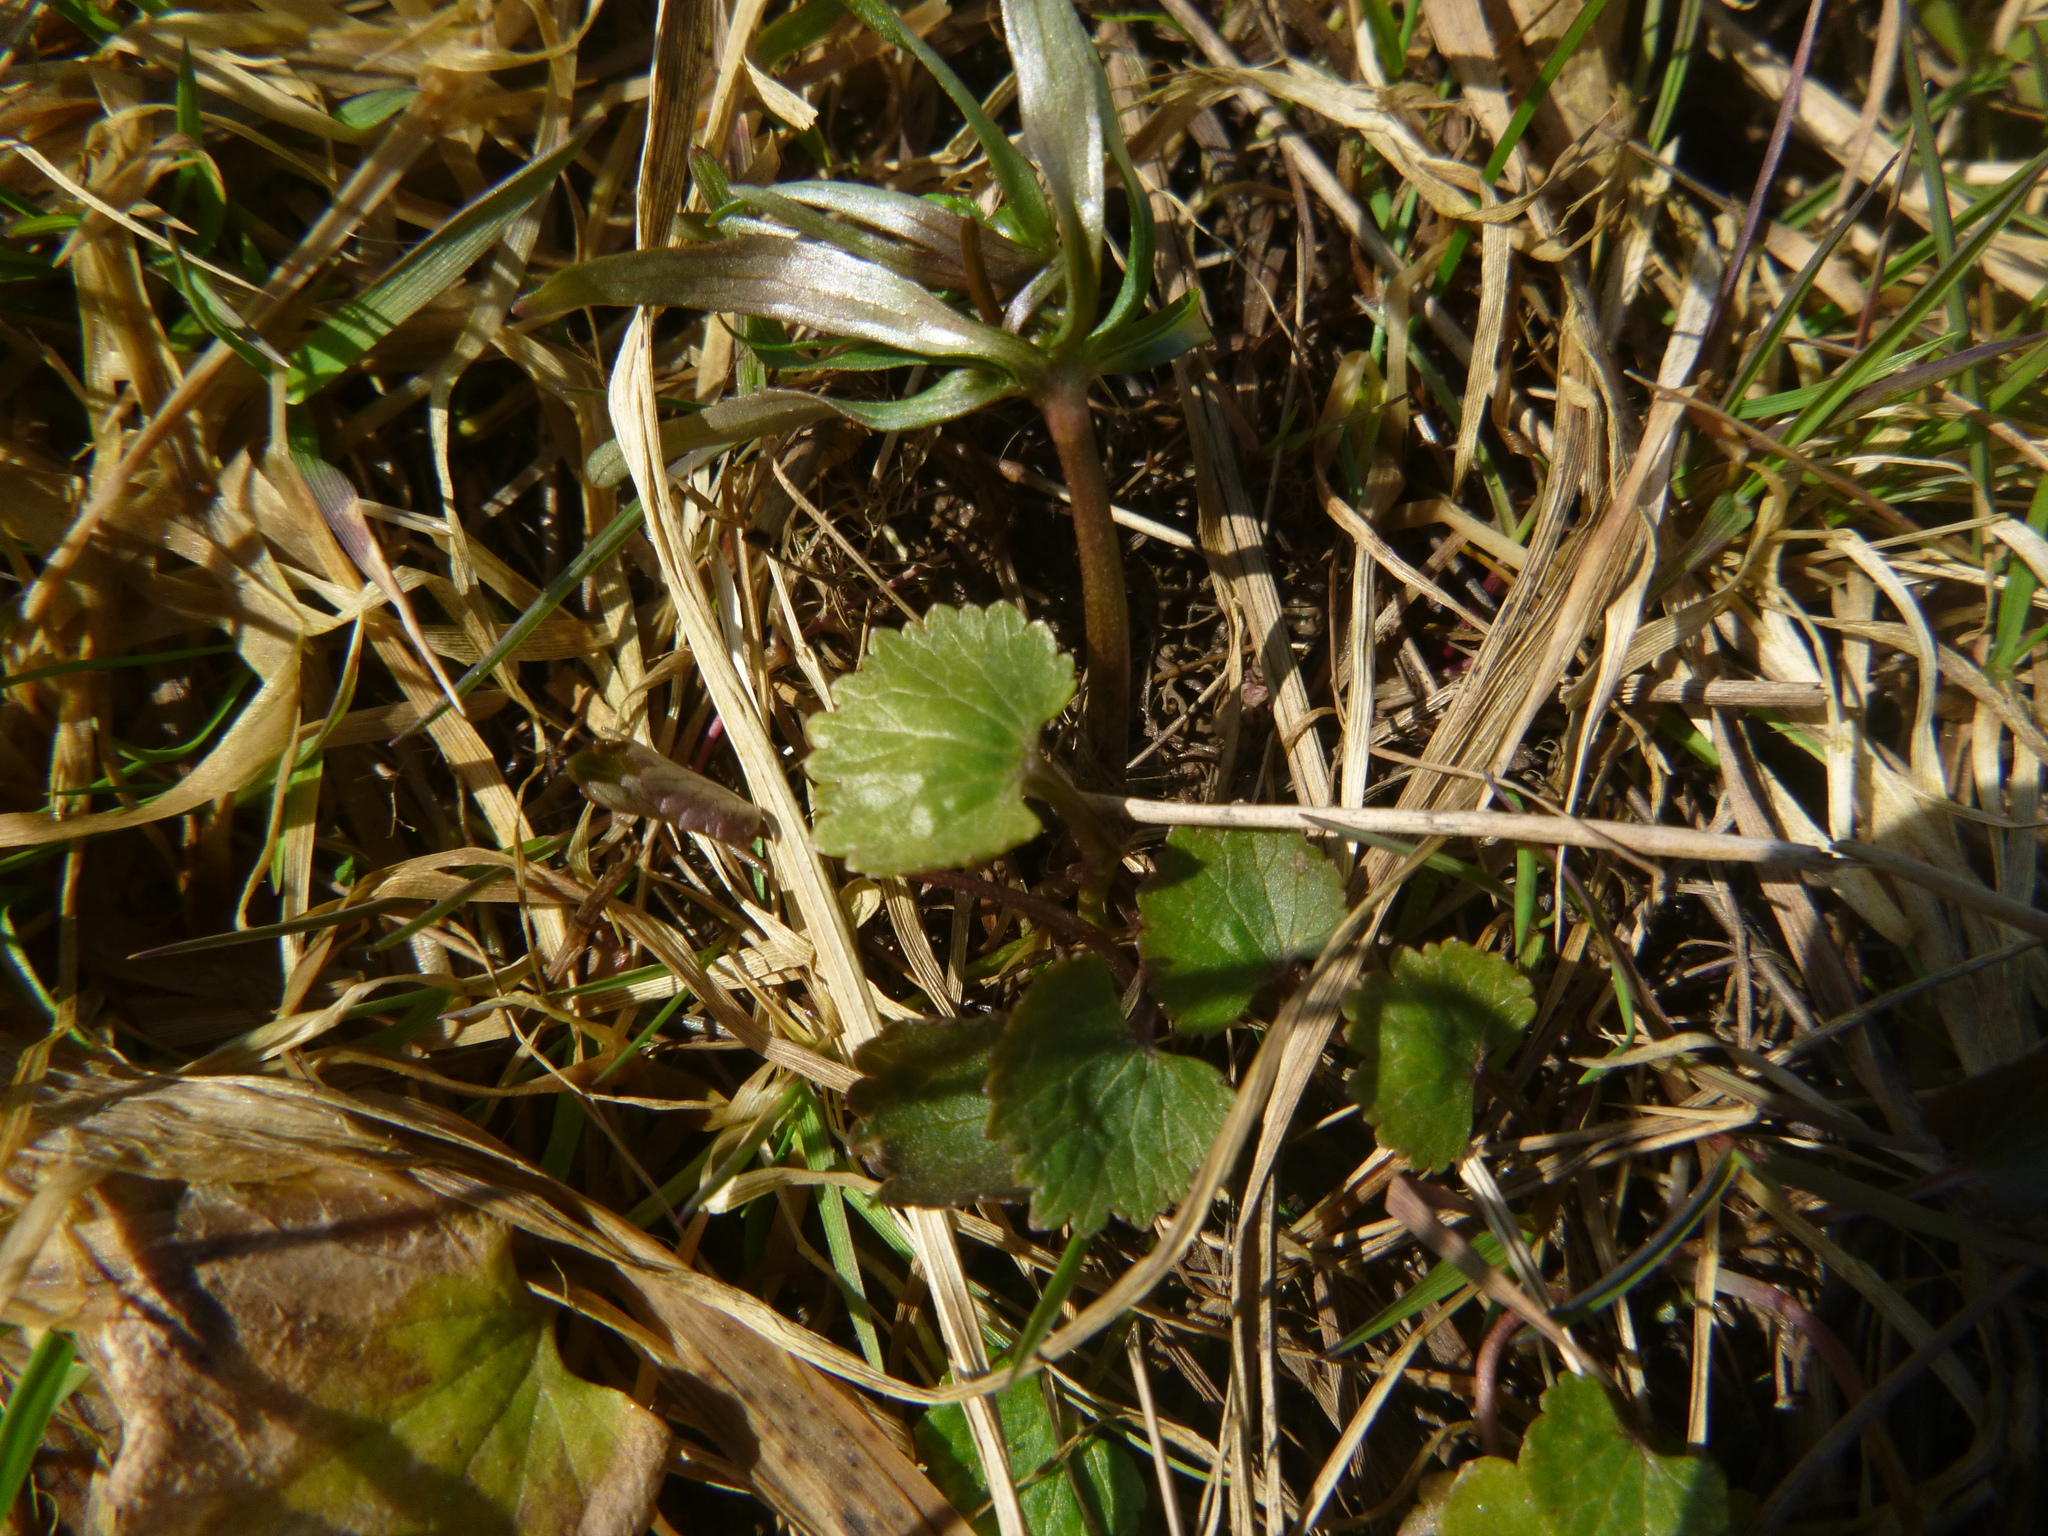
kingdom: Plantae
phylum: Tracheophyta
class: Magnoliopsida
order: Ranunculales
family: Ranunculaceae
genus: Ranunculus
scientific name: Ranunculus auricomus
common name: Goldilocks buttercup
